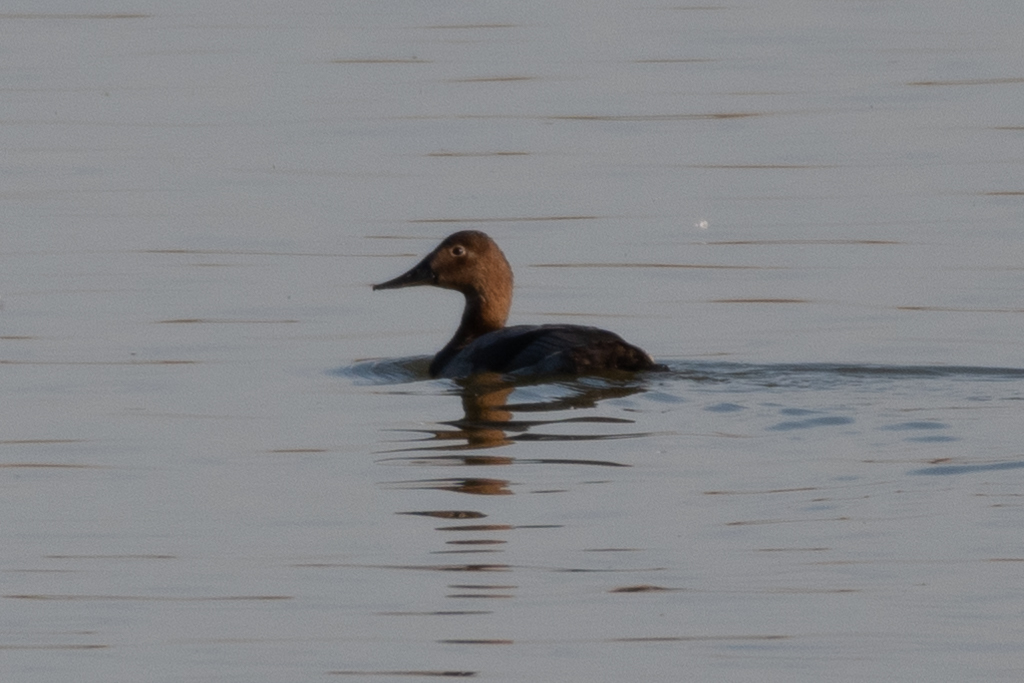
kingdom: Animalia
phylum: Chordata
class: Aves
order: Anseriformes
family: Anatidae
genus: Aythya
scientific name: Aythya valisineria
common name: Canvasback
